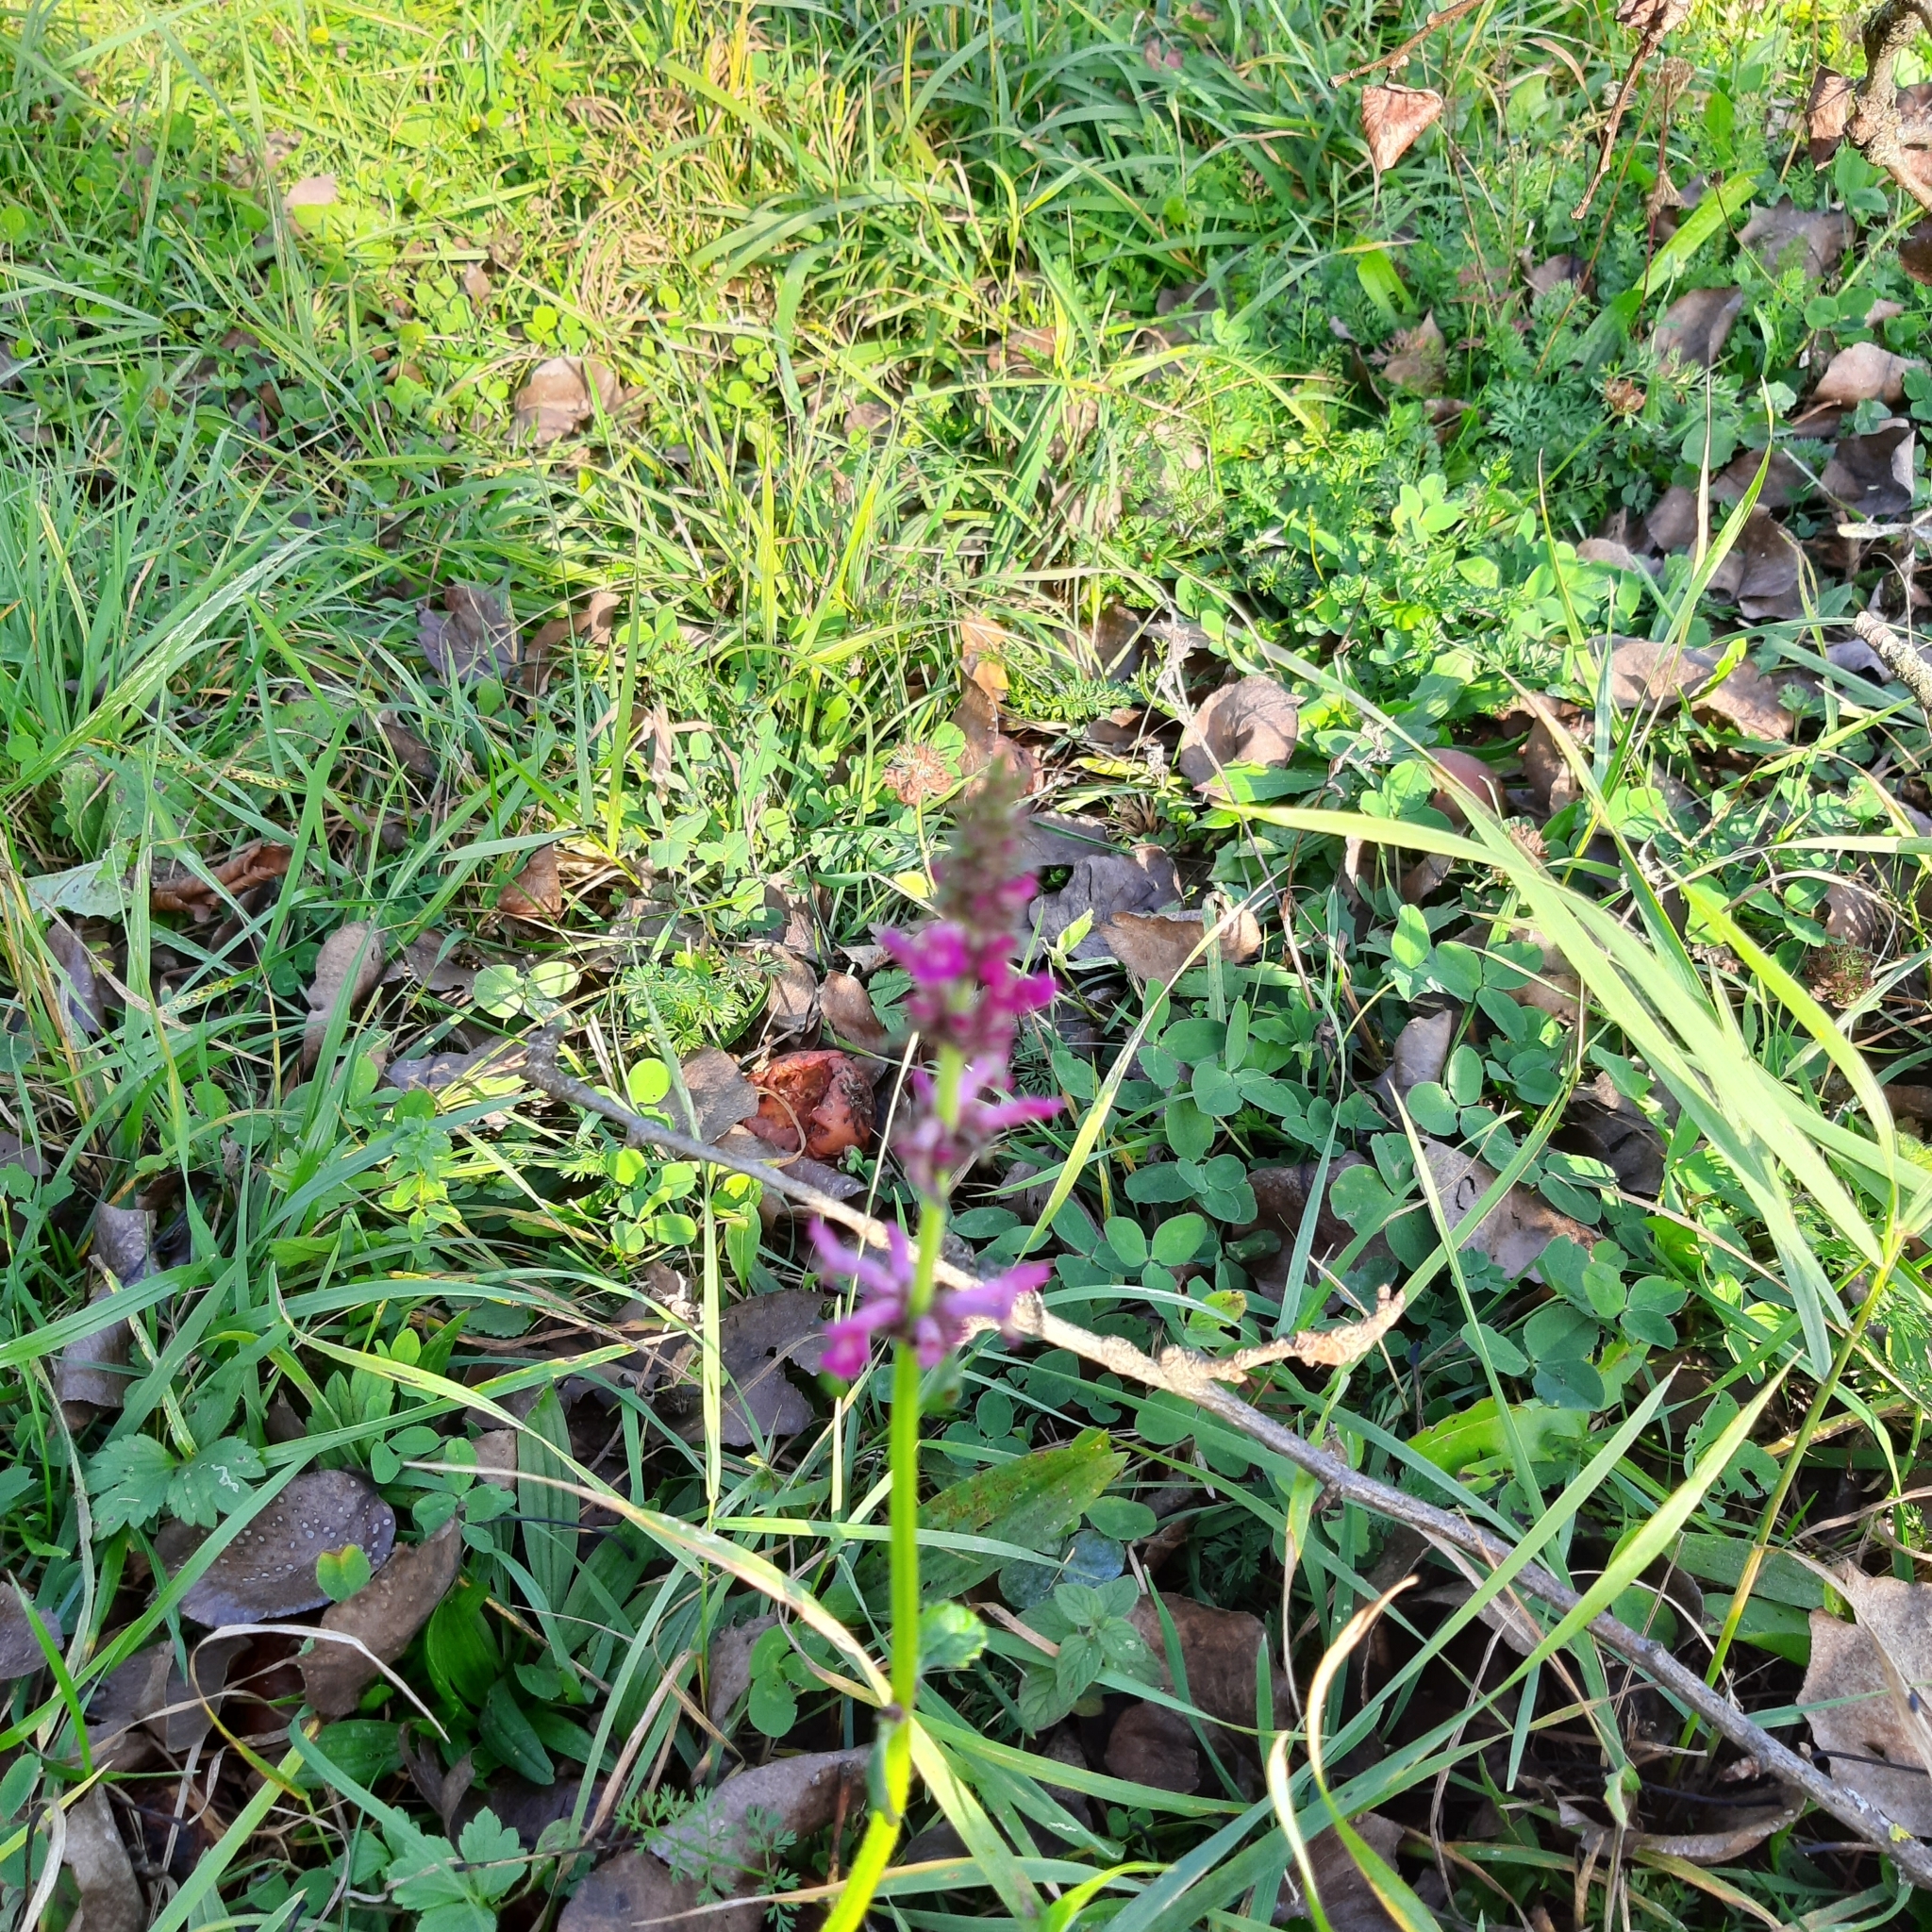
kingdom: Plantae
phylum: Tracheophyta
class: Magnoliopsida
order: Lamiales
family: Lamiaceae
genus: Betonica
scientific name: Betonica officinalis
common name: Bishop's-wort
